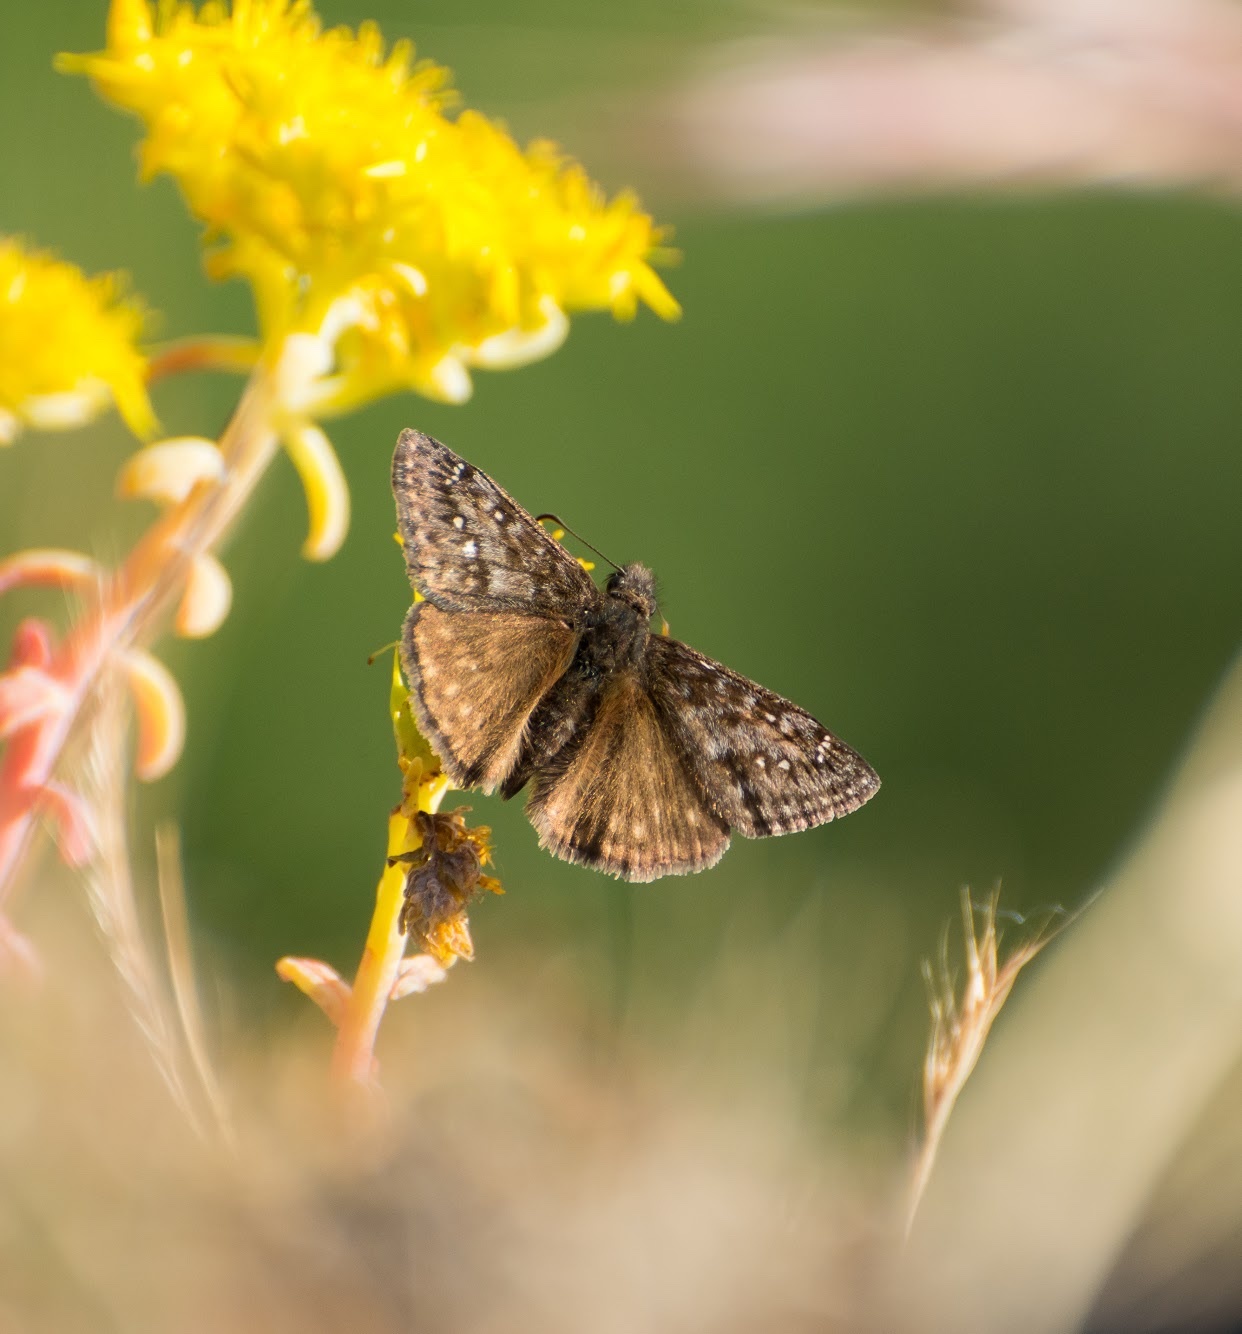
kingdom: Animalia
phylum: Arthropoda
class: Insecta
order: Lepidoptera
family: Hesperiidae
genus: Erynnis
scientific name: Erynnis propertius
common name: Propertius duskywing
